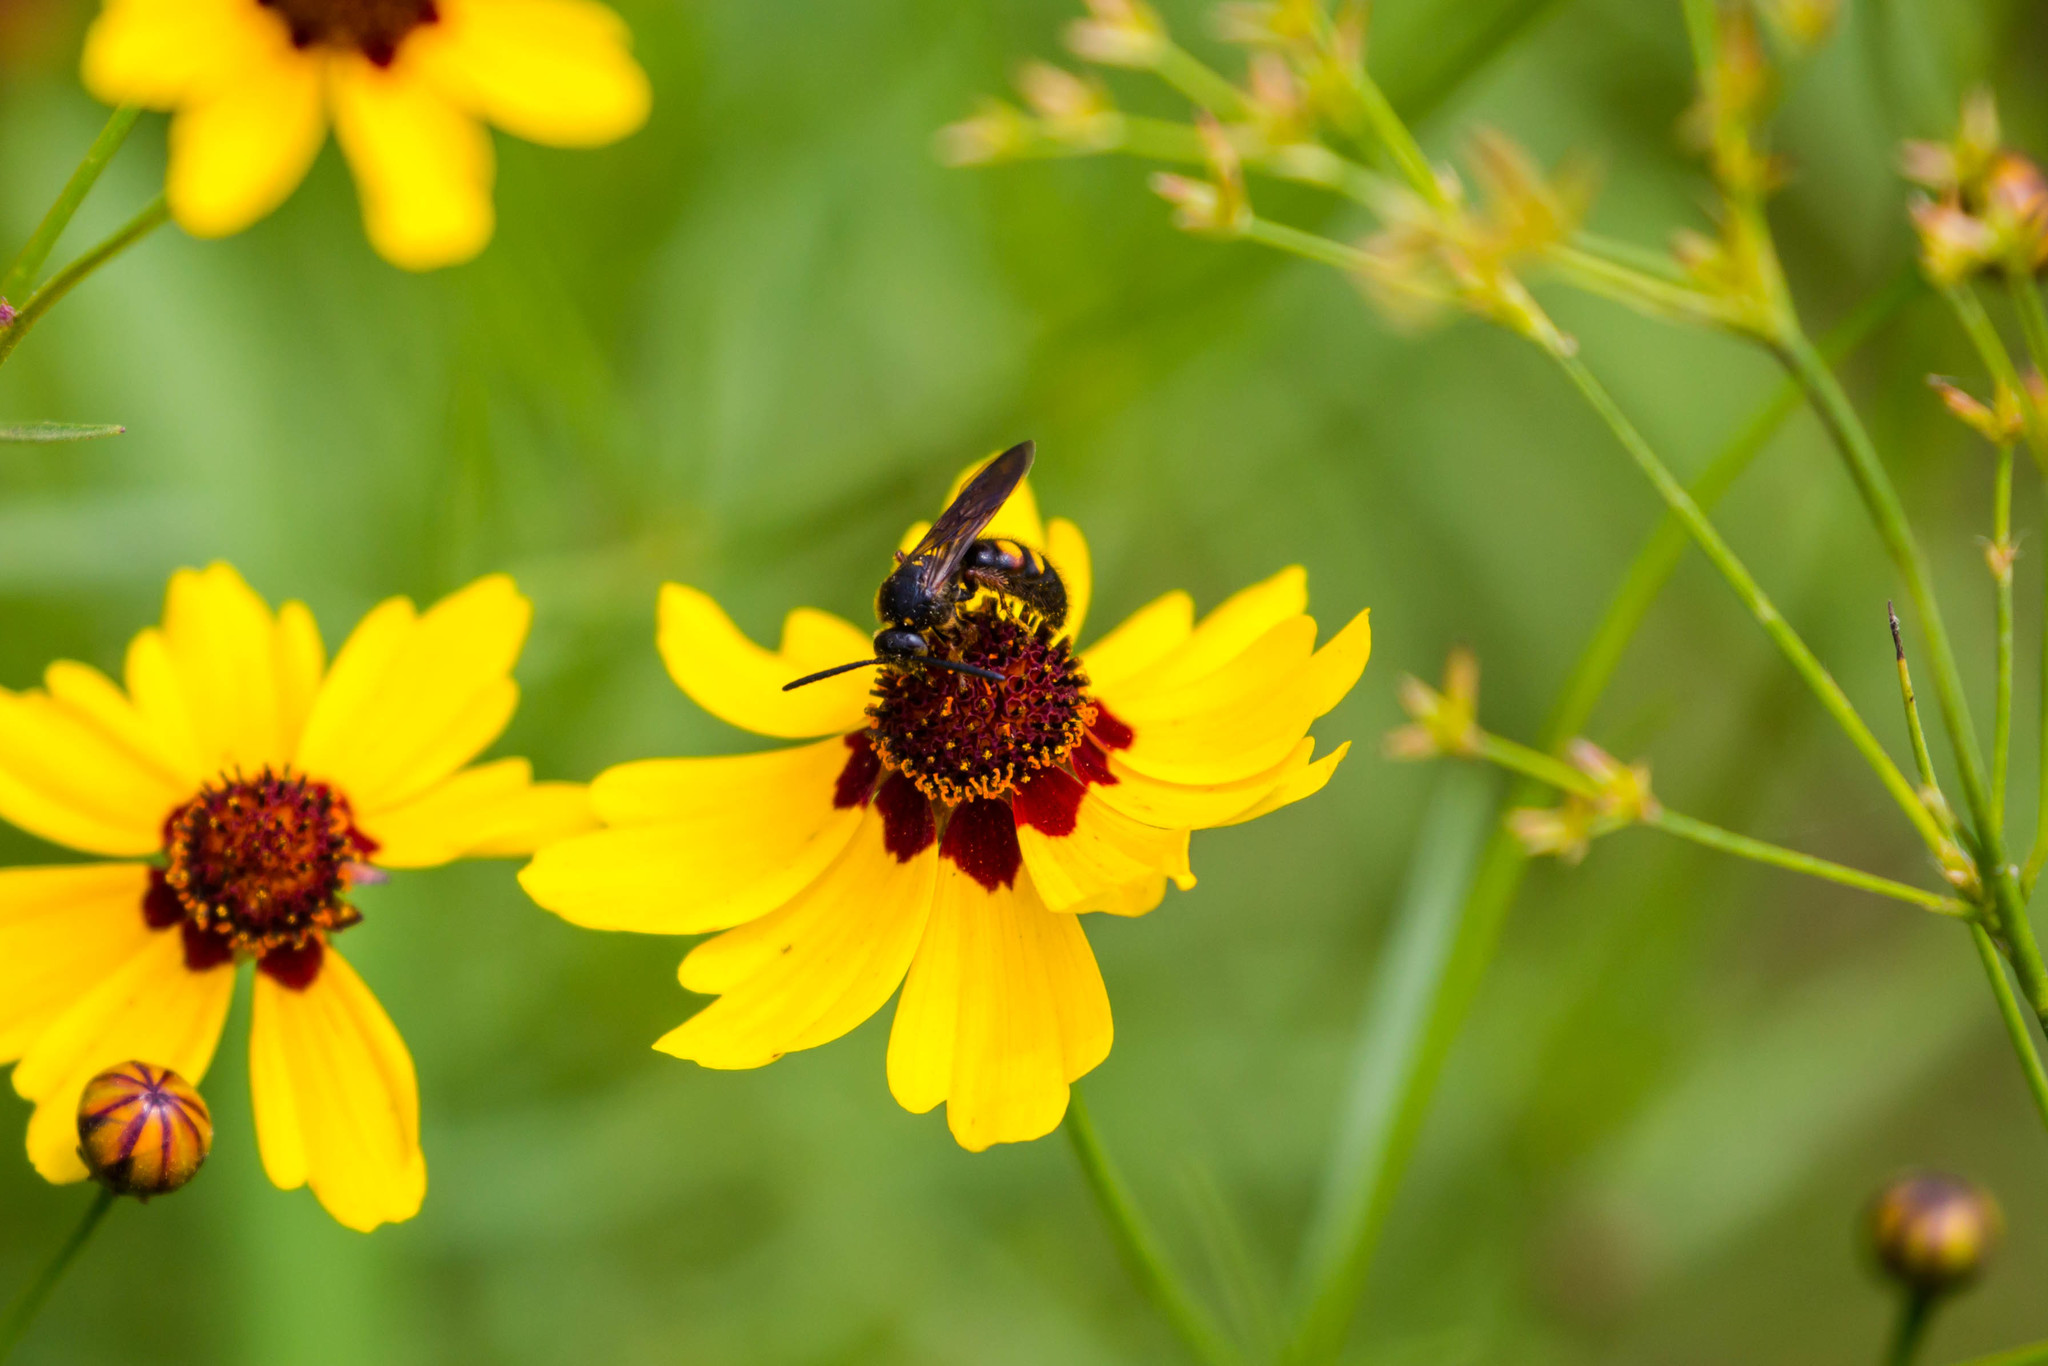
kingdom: Animalia
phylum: Arthropoda
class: Insecta
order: Hymenoptera
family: Scoliidae
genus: Scolia
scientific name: Scolia nobilitata
